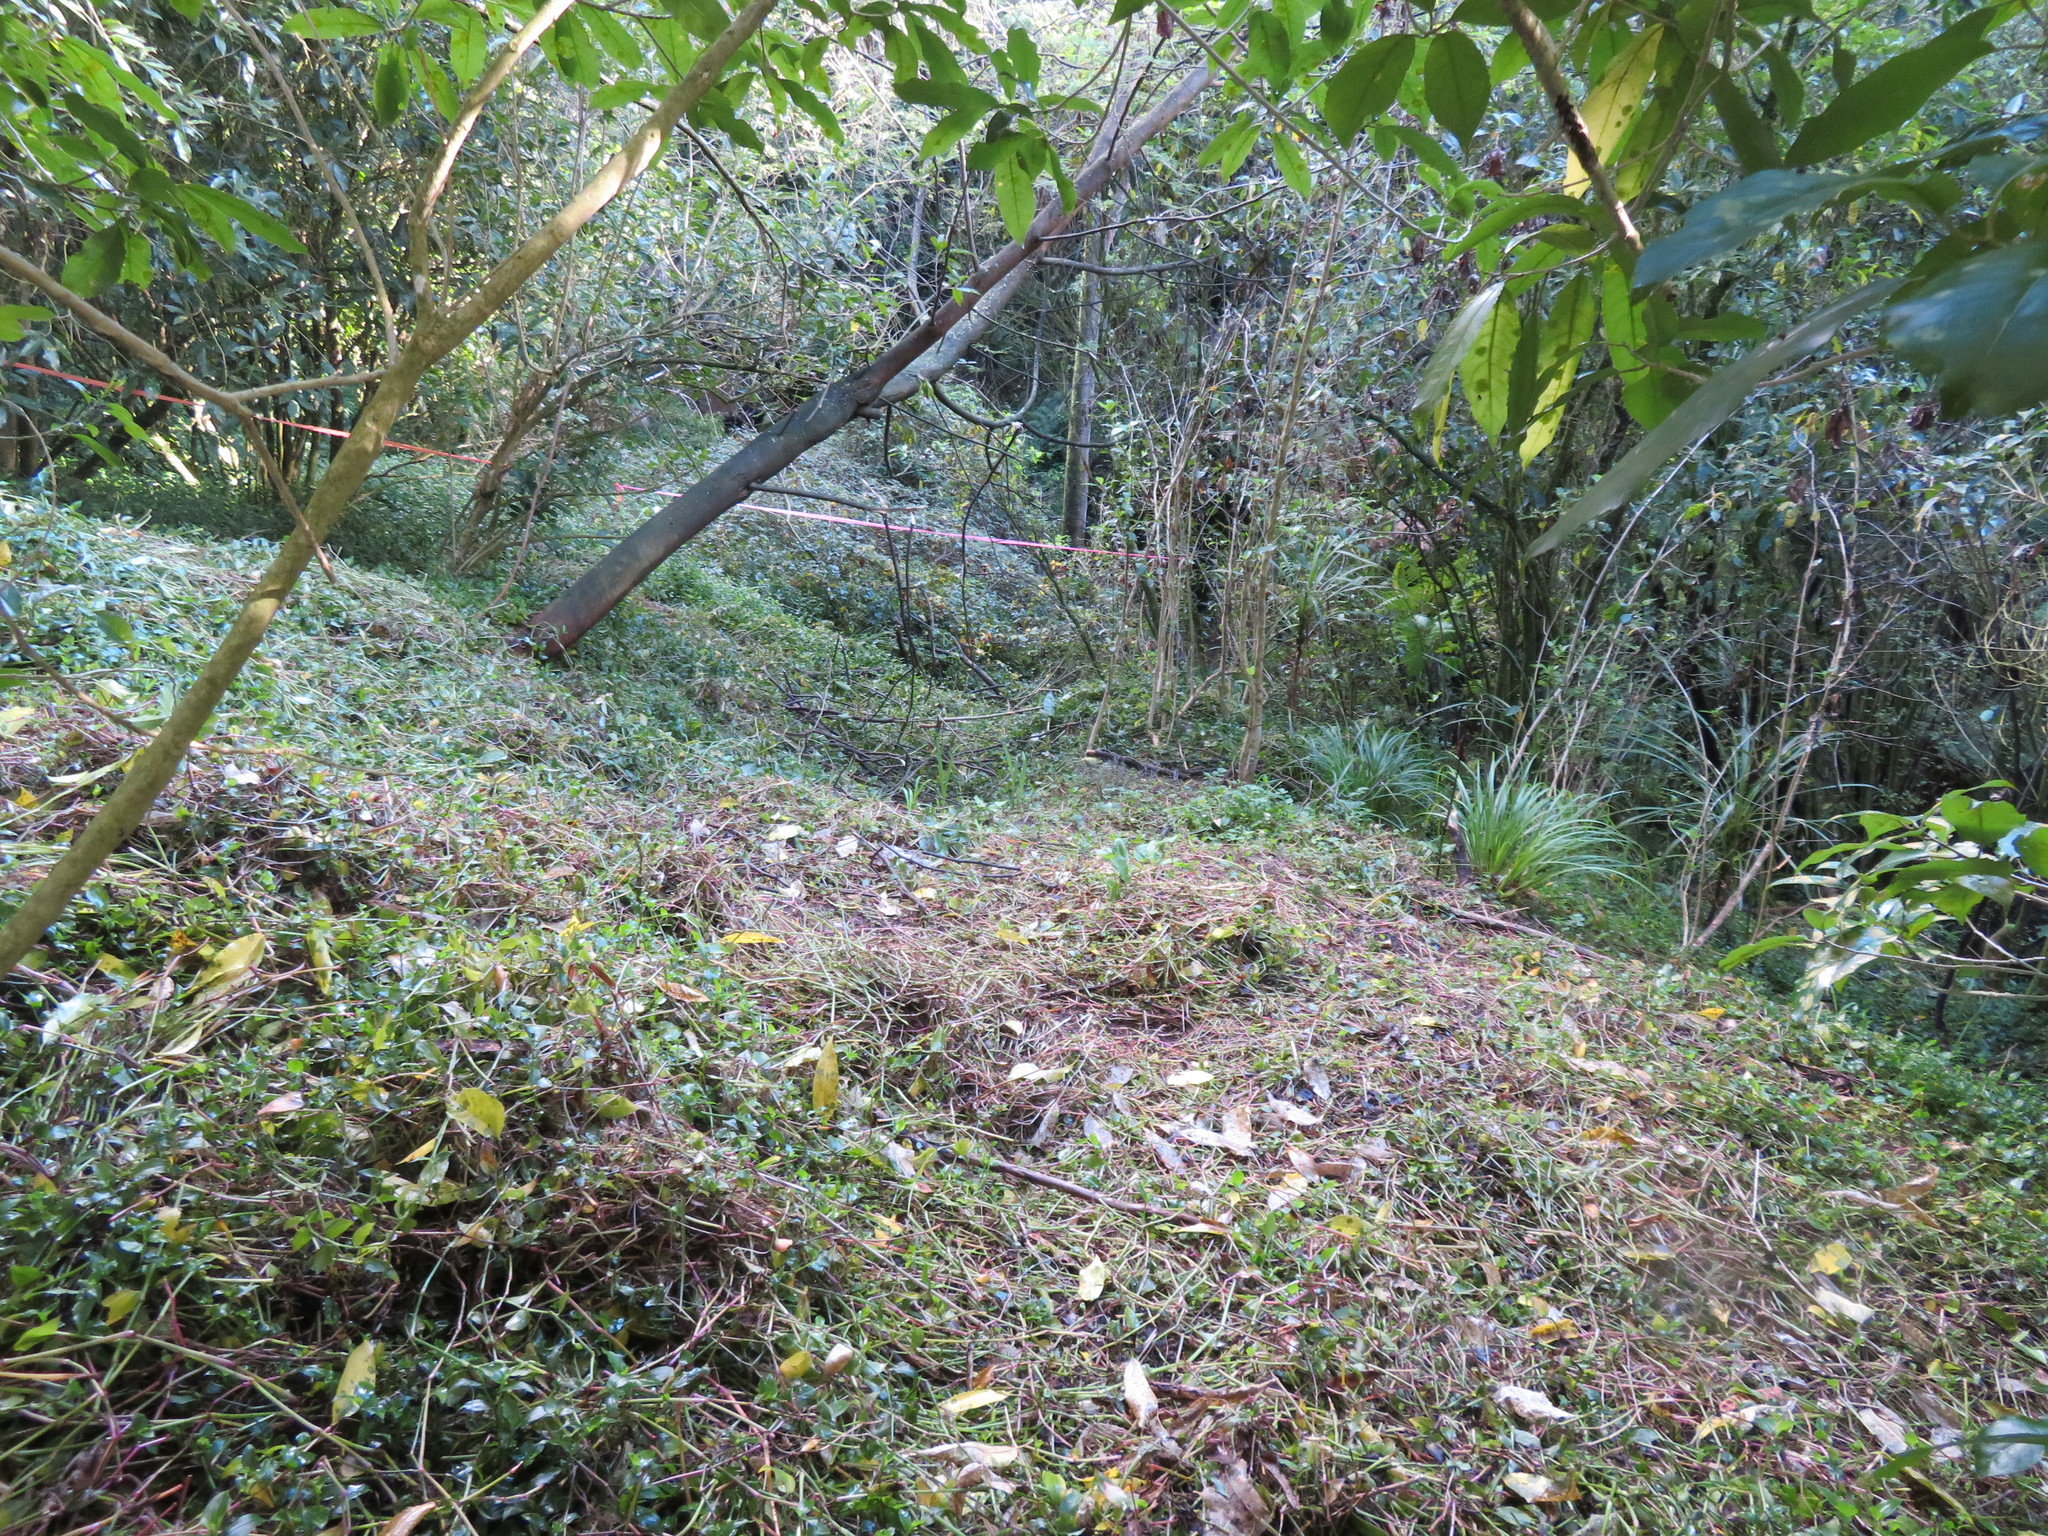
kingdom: Plantae
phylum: Tracheophyta
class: Liliopsida
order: Commelinales
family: Commelinaceae
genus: Tradescantia
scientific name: Tradescantia fluminensis
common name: Wandering-jew
